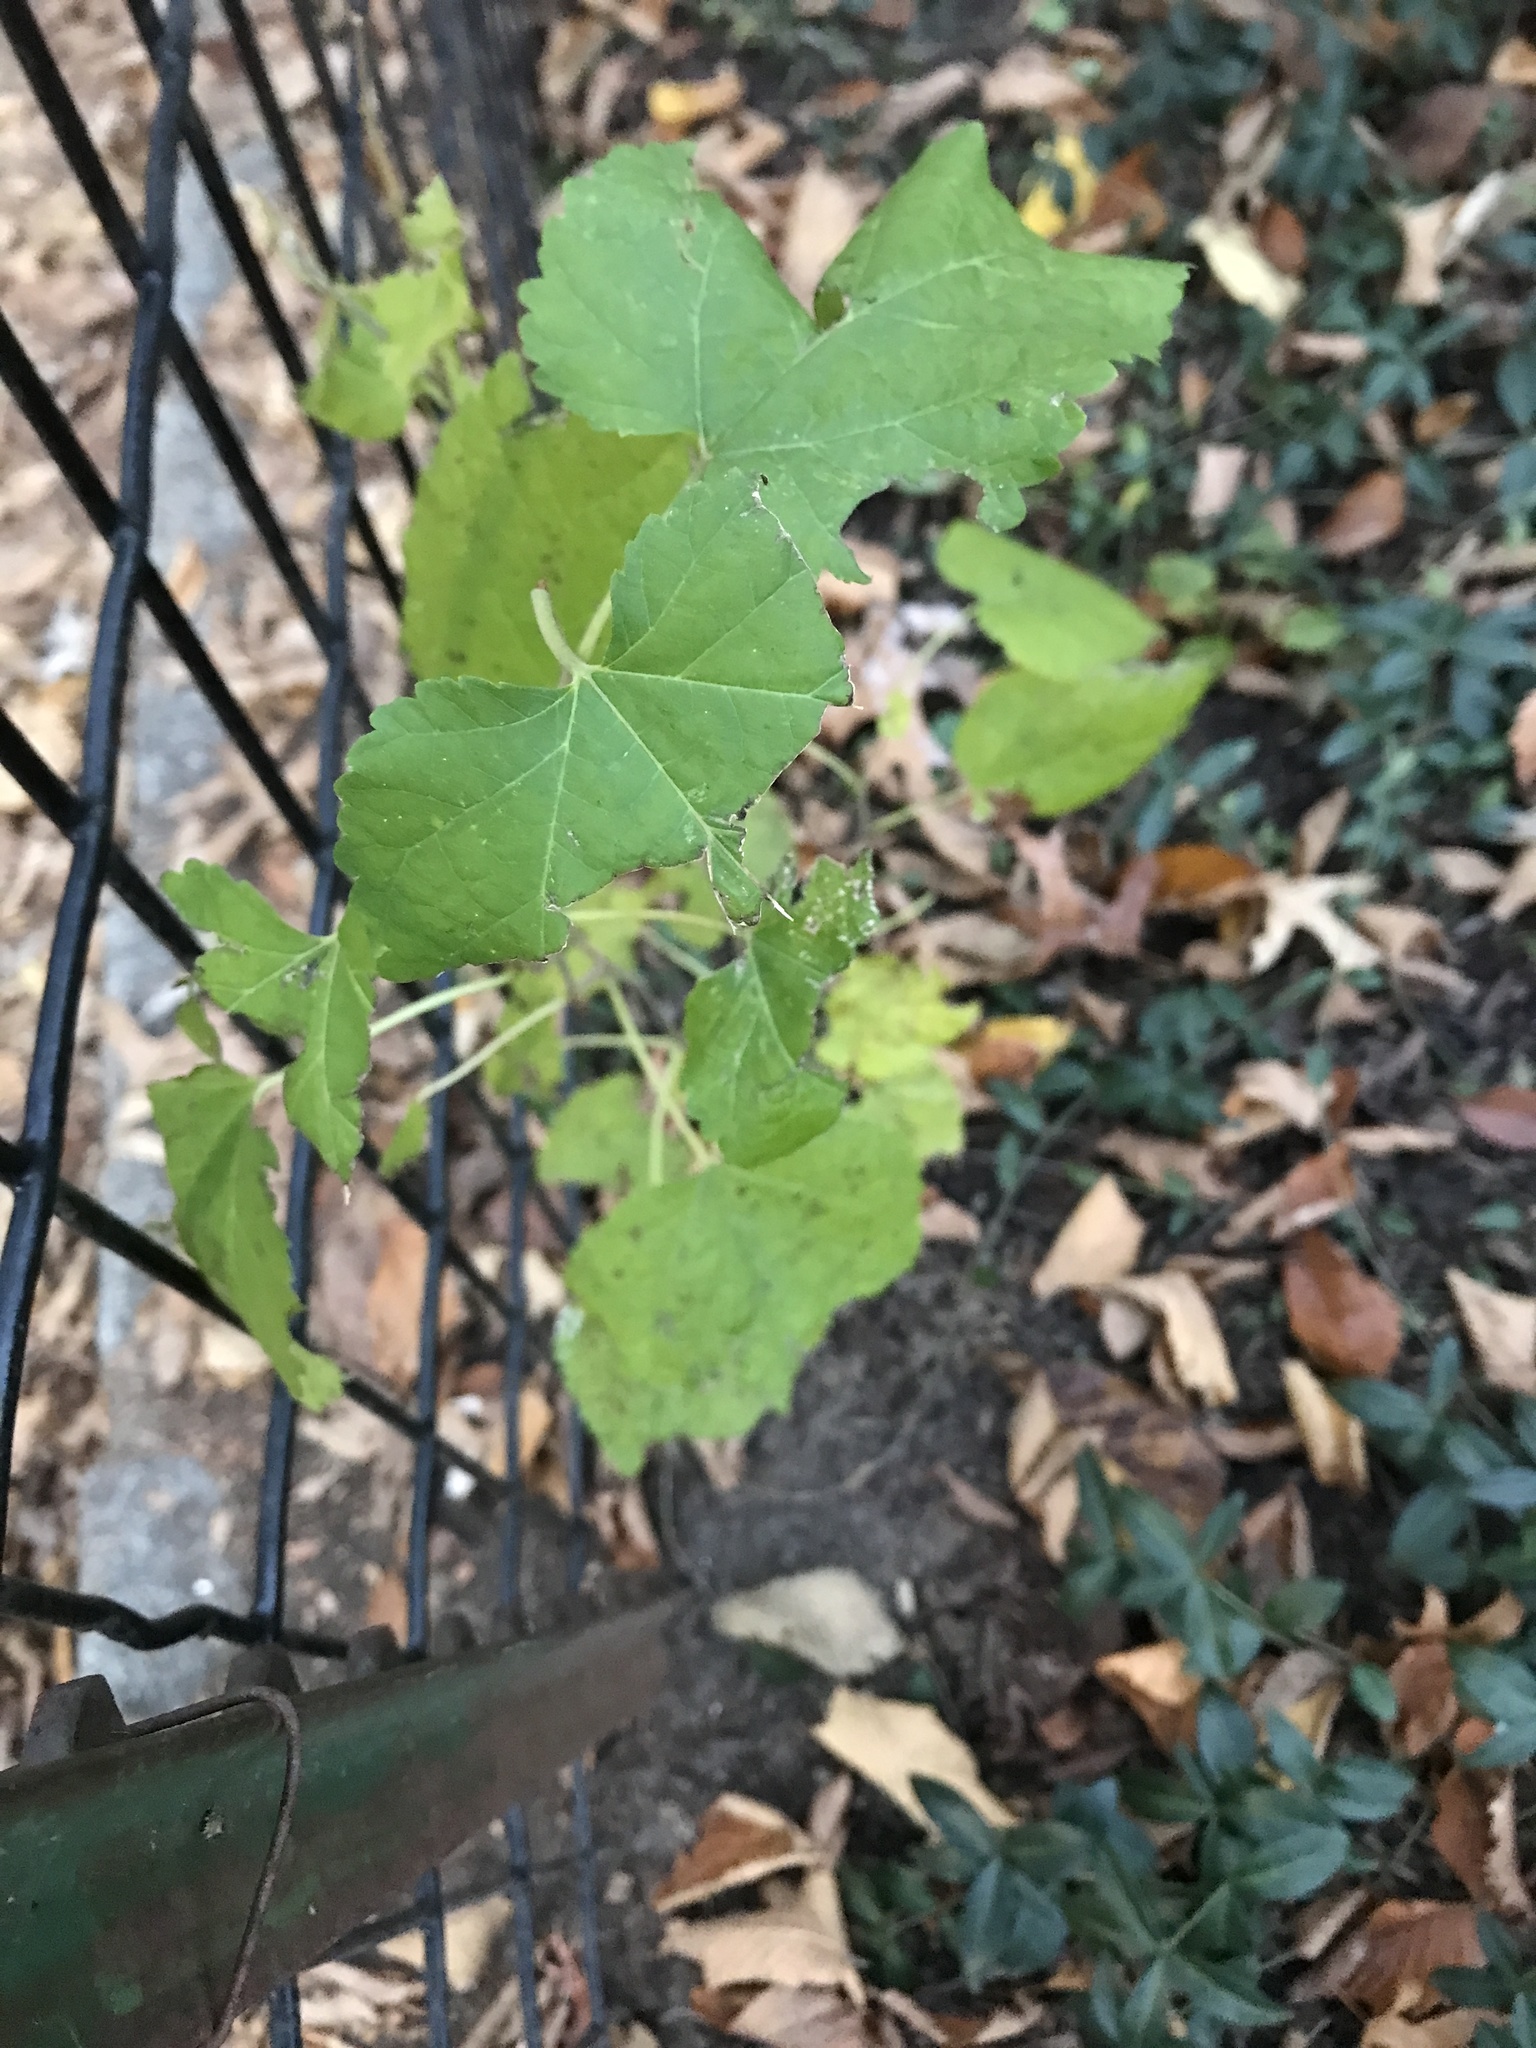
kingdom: Plantae
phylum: Tracheophyta
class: Magnoliopsida
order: Rosales
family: Moraceae
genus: Morus
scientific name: Morus alba
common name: White mulberry
